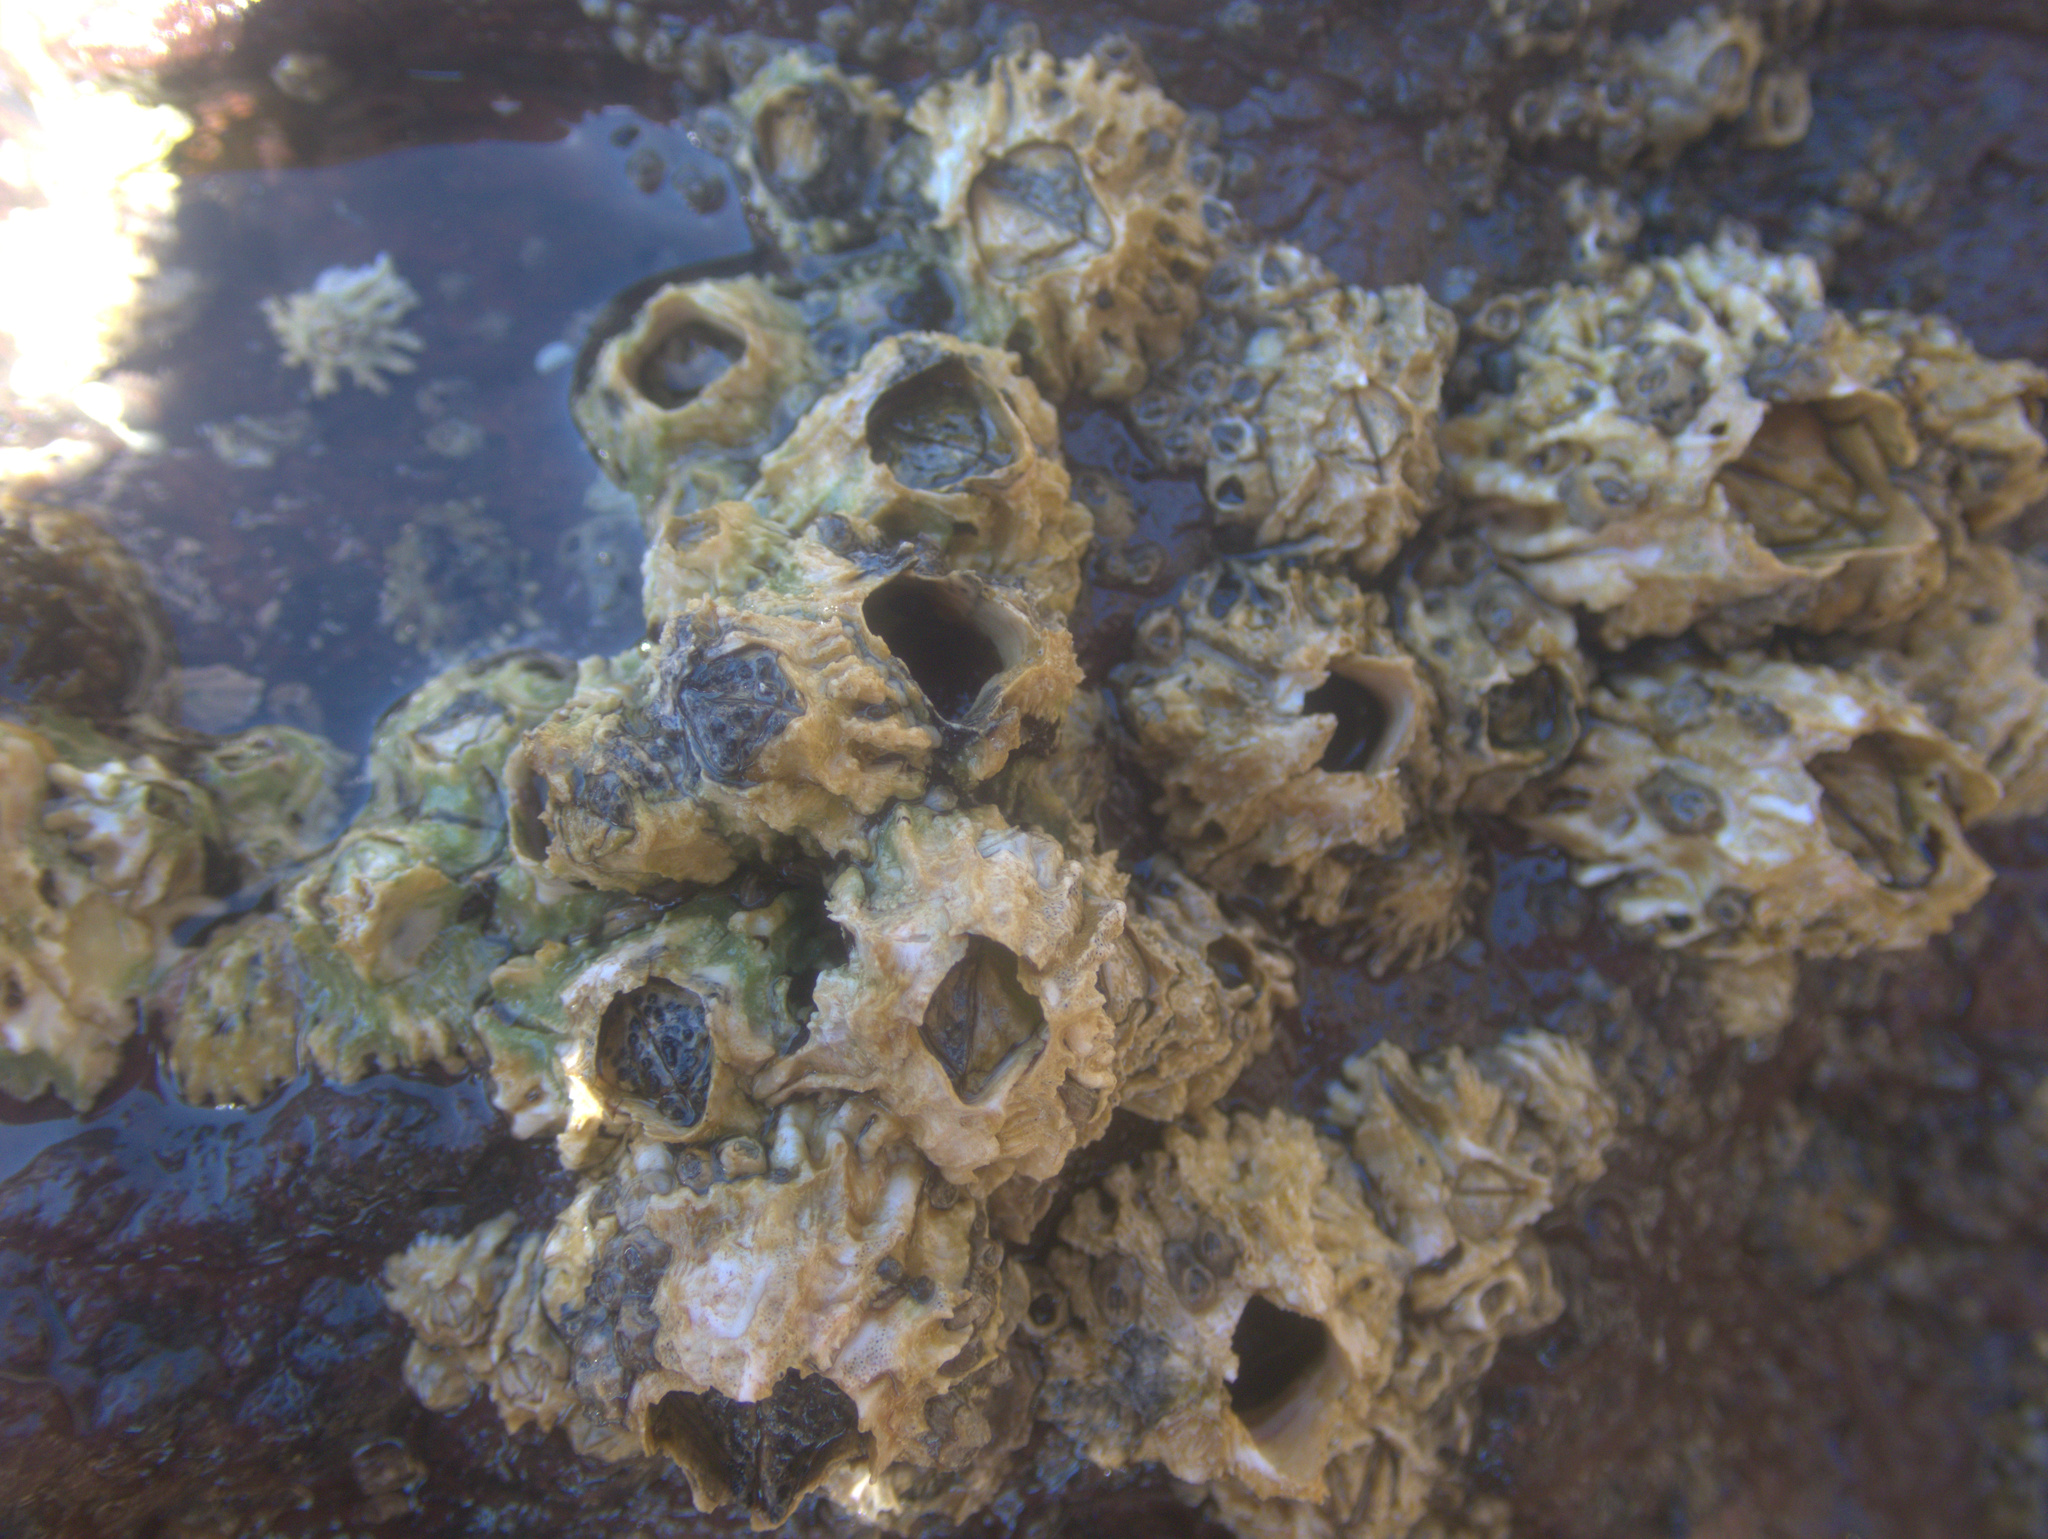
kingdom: Animalia
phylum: Arthropoda
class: Maxillopoda
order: Sessilia
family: Tetraclitidae
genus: Epopella
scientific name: Epopella plicata
